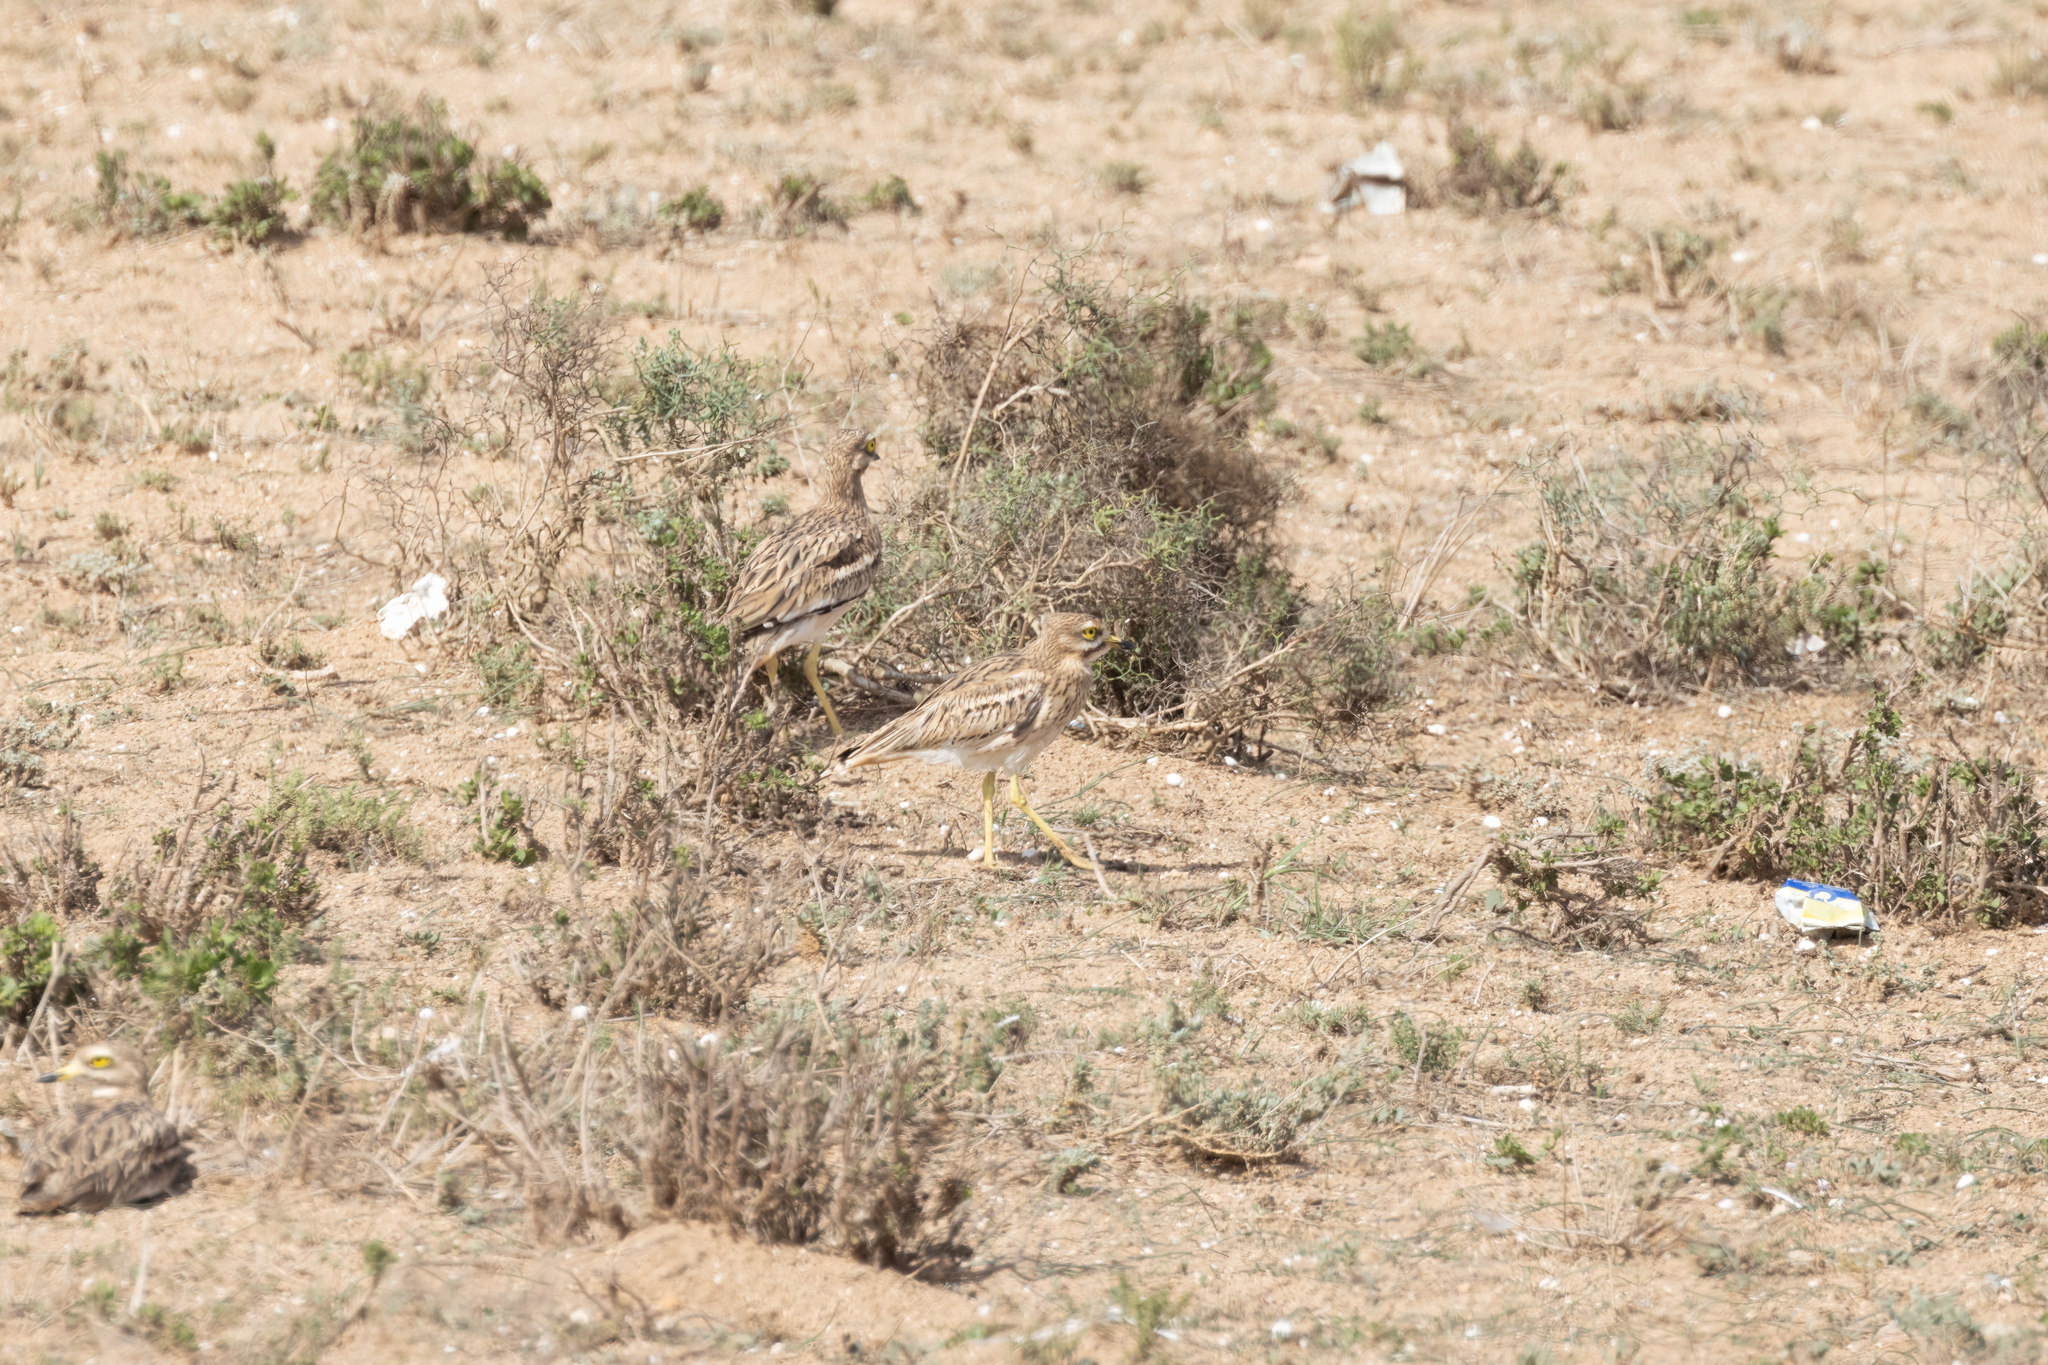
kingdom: Animalia
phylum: Chordata
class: Aves
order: Charadriiformes
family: Burhinidae
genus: Burhinus
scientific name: Burhinus oedicnemus
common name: Eurasian stone-curlew
